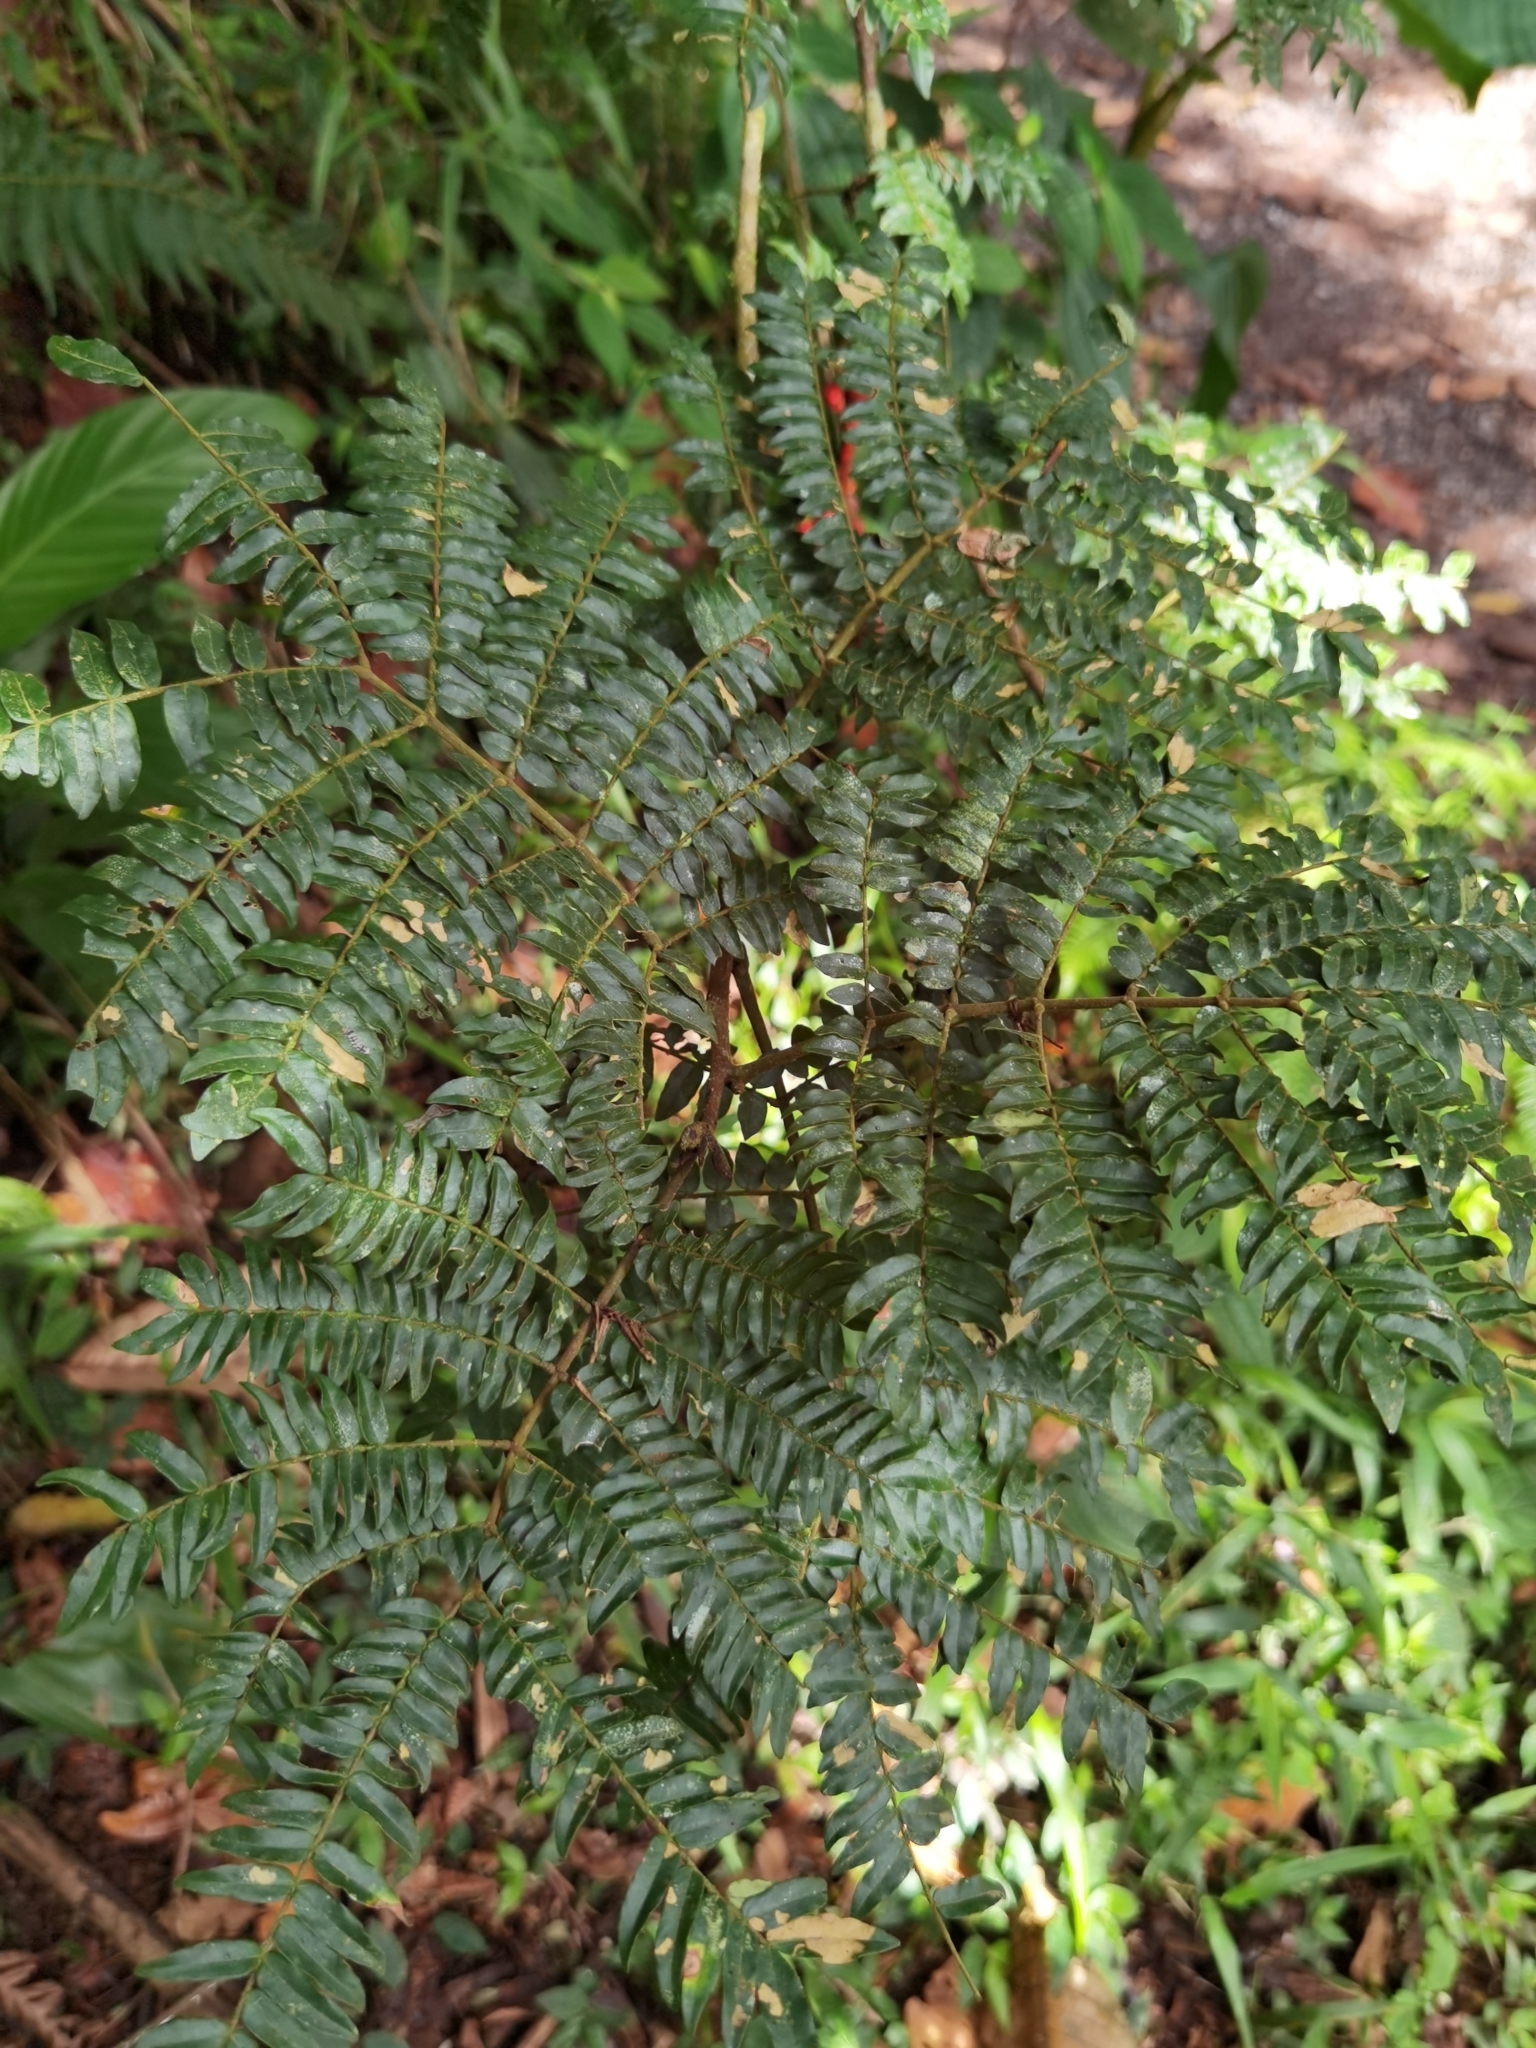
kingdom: Plantae
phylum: Tracheophyta
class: Magnoliopsida
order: Fabales
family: Fabaceae
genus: Cojoba
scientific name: Cojoba costaricensis
